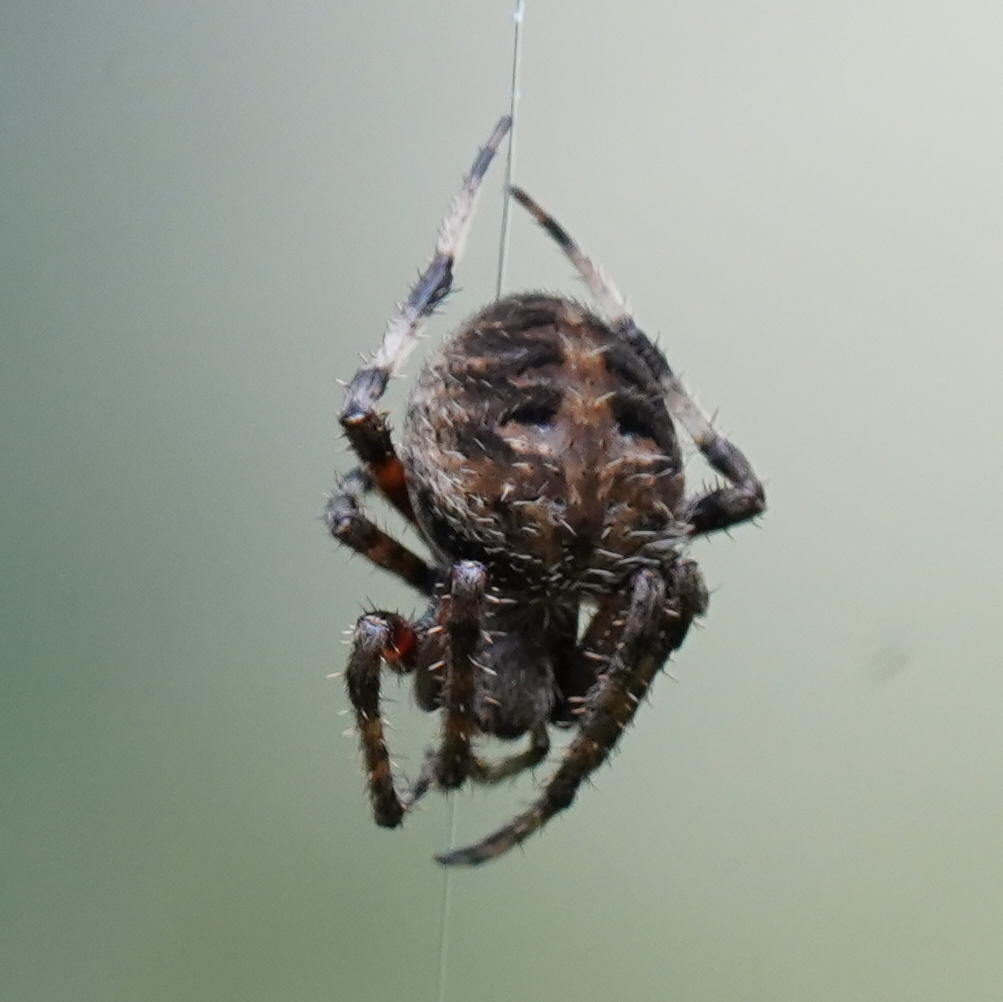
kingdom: Animalia
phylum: Arthropoda
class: Arachnida
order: Araneae
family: Araneidae
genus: Neoscona
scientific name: Neoscona crucifera
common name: Spotted orbweaver
